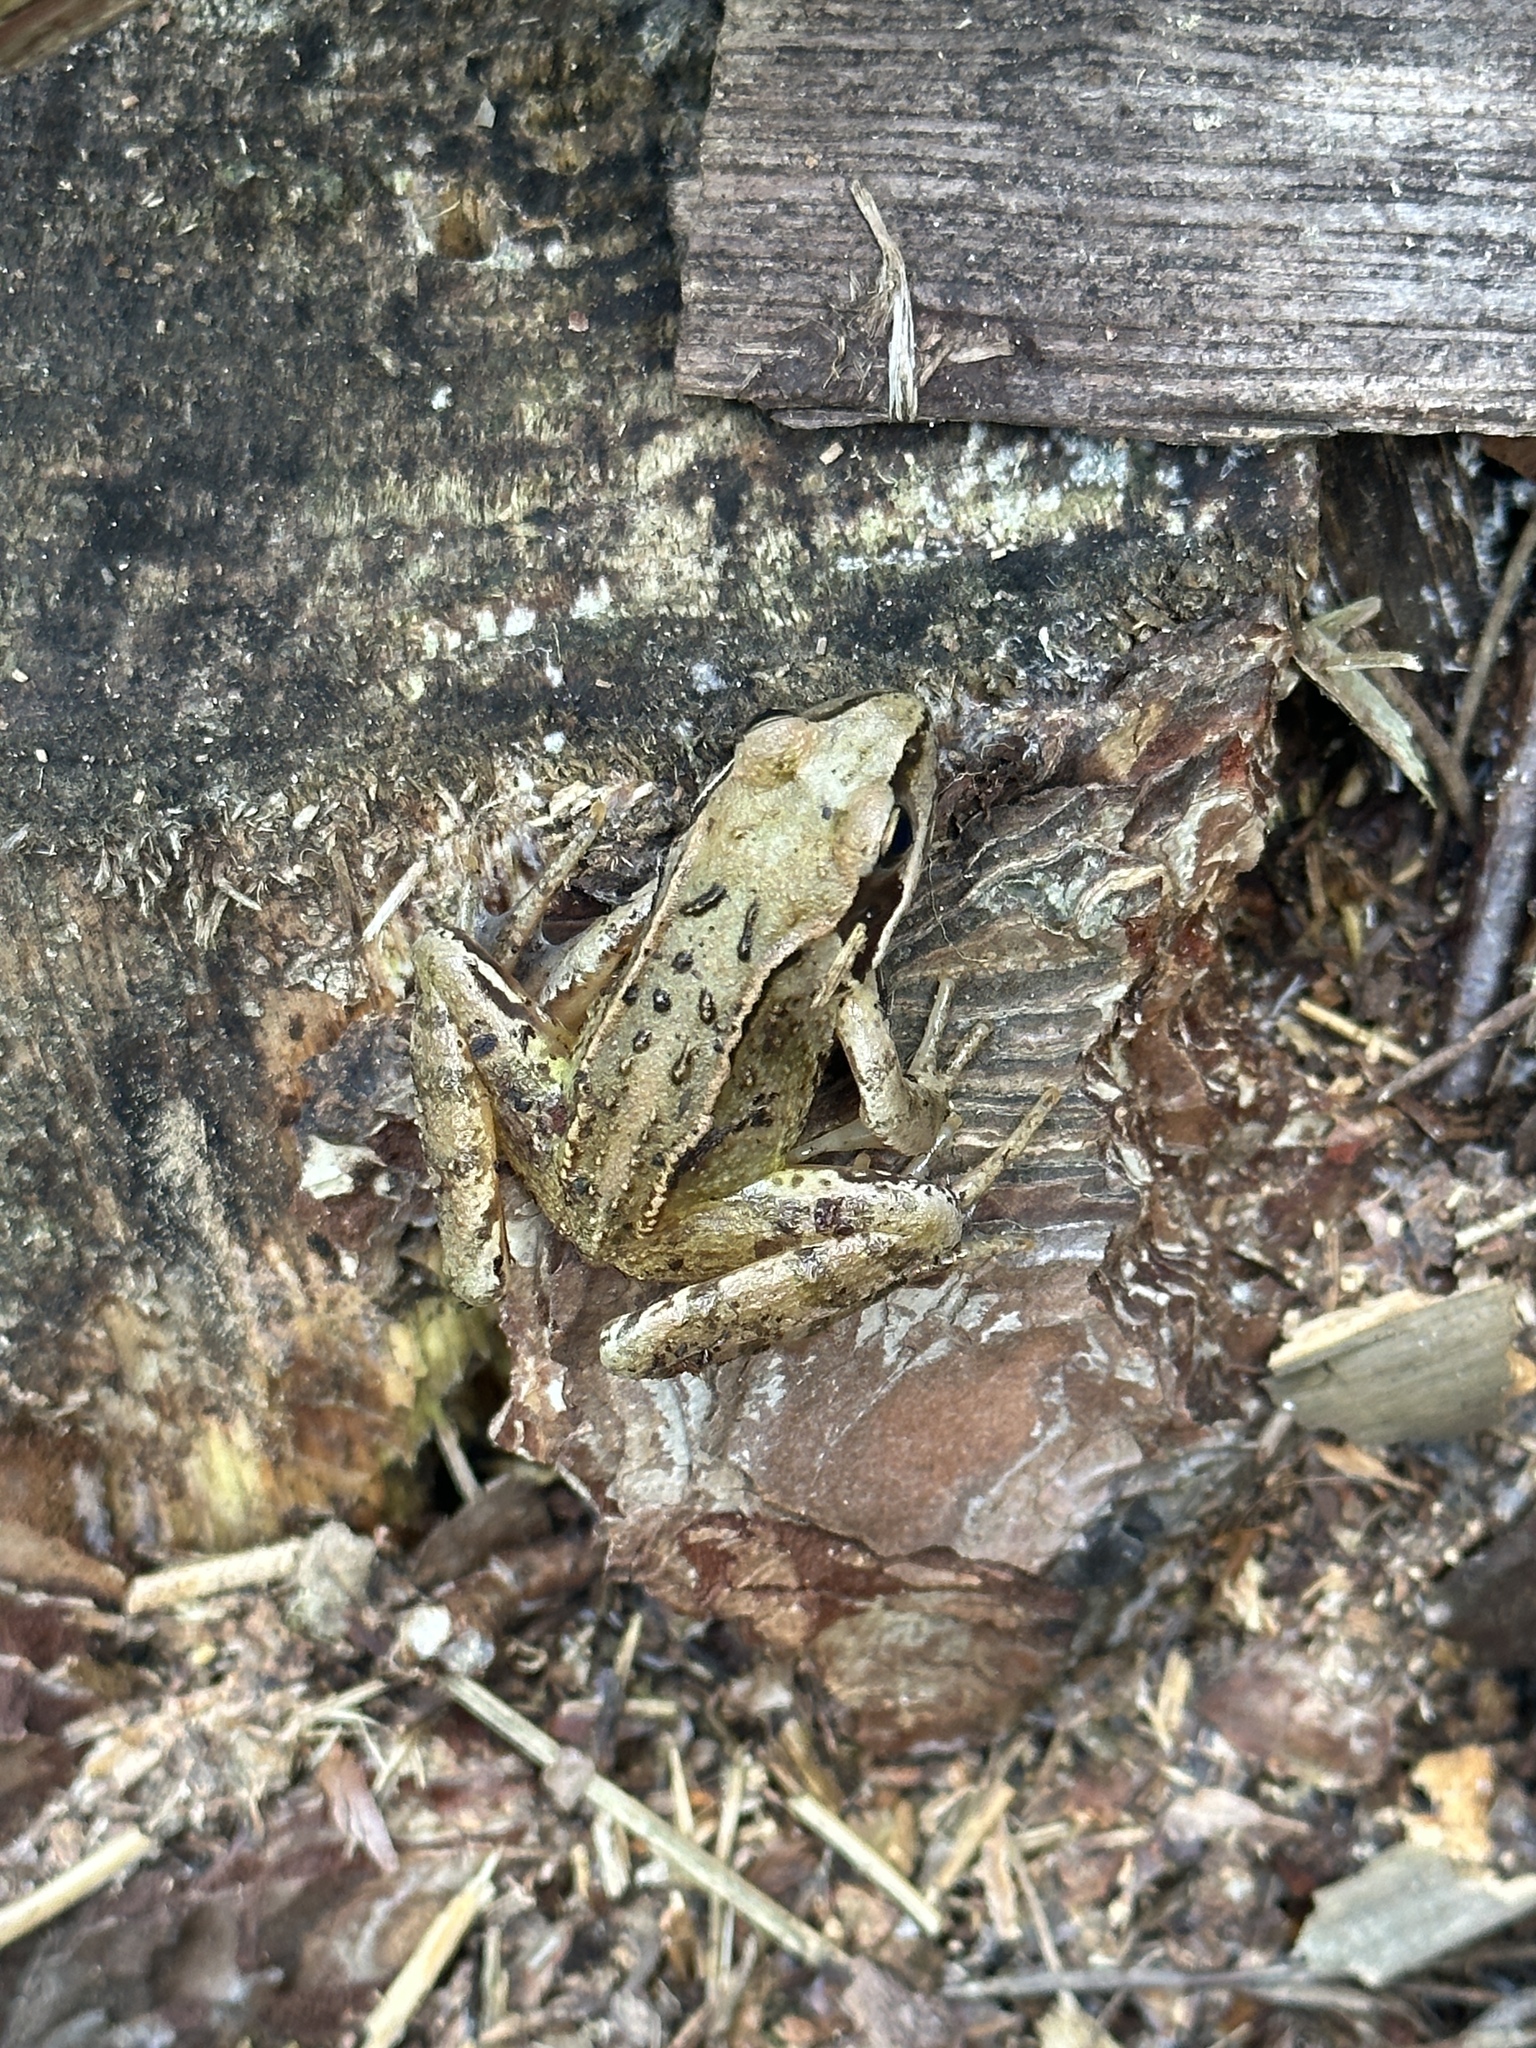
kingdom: Animalia
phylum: Chordata
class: Amphibia
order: Anura
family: Ranidae
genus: Rana
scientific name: Rana temporaria
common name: Common frog
